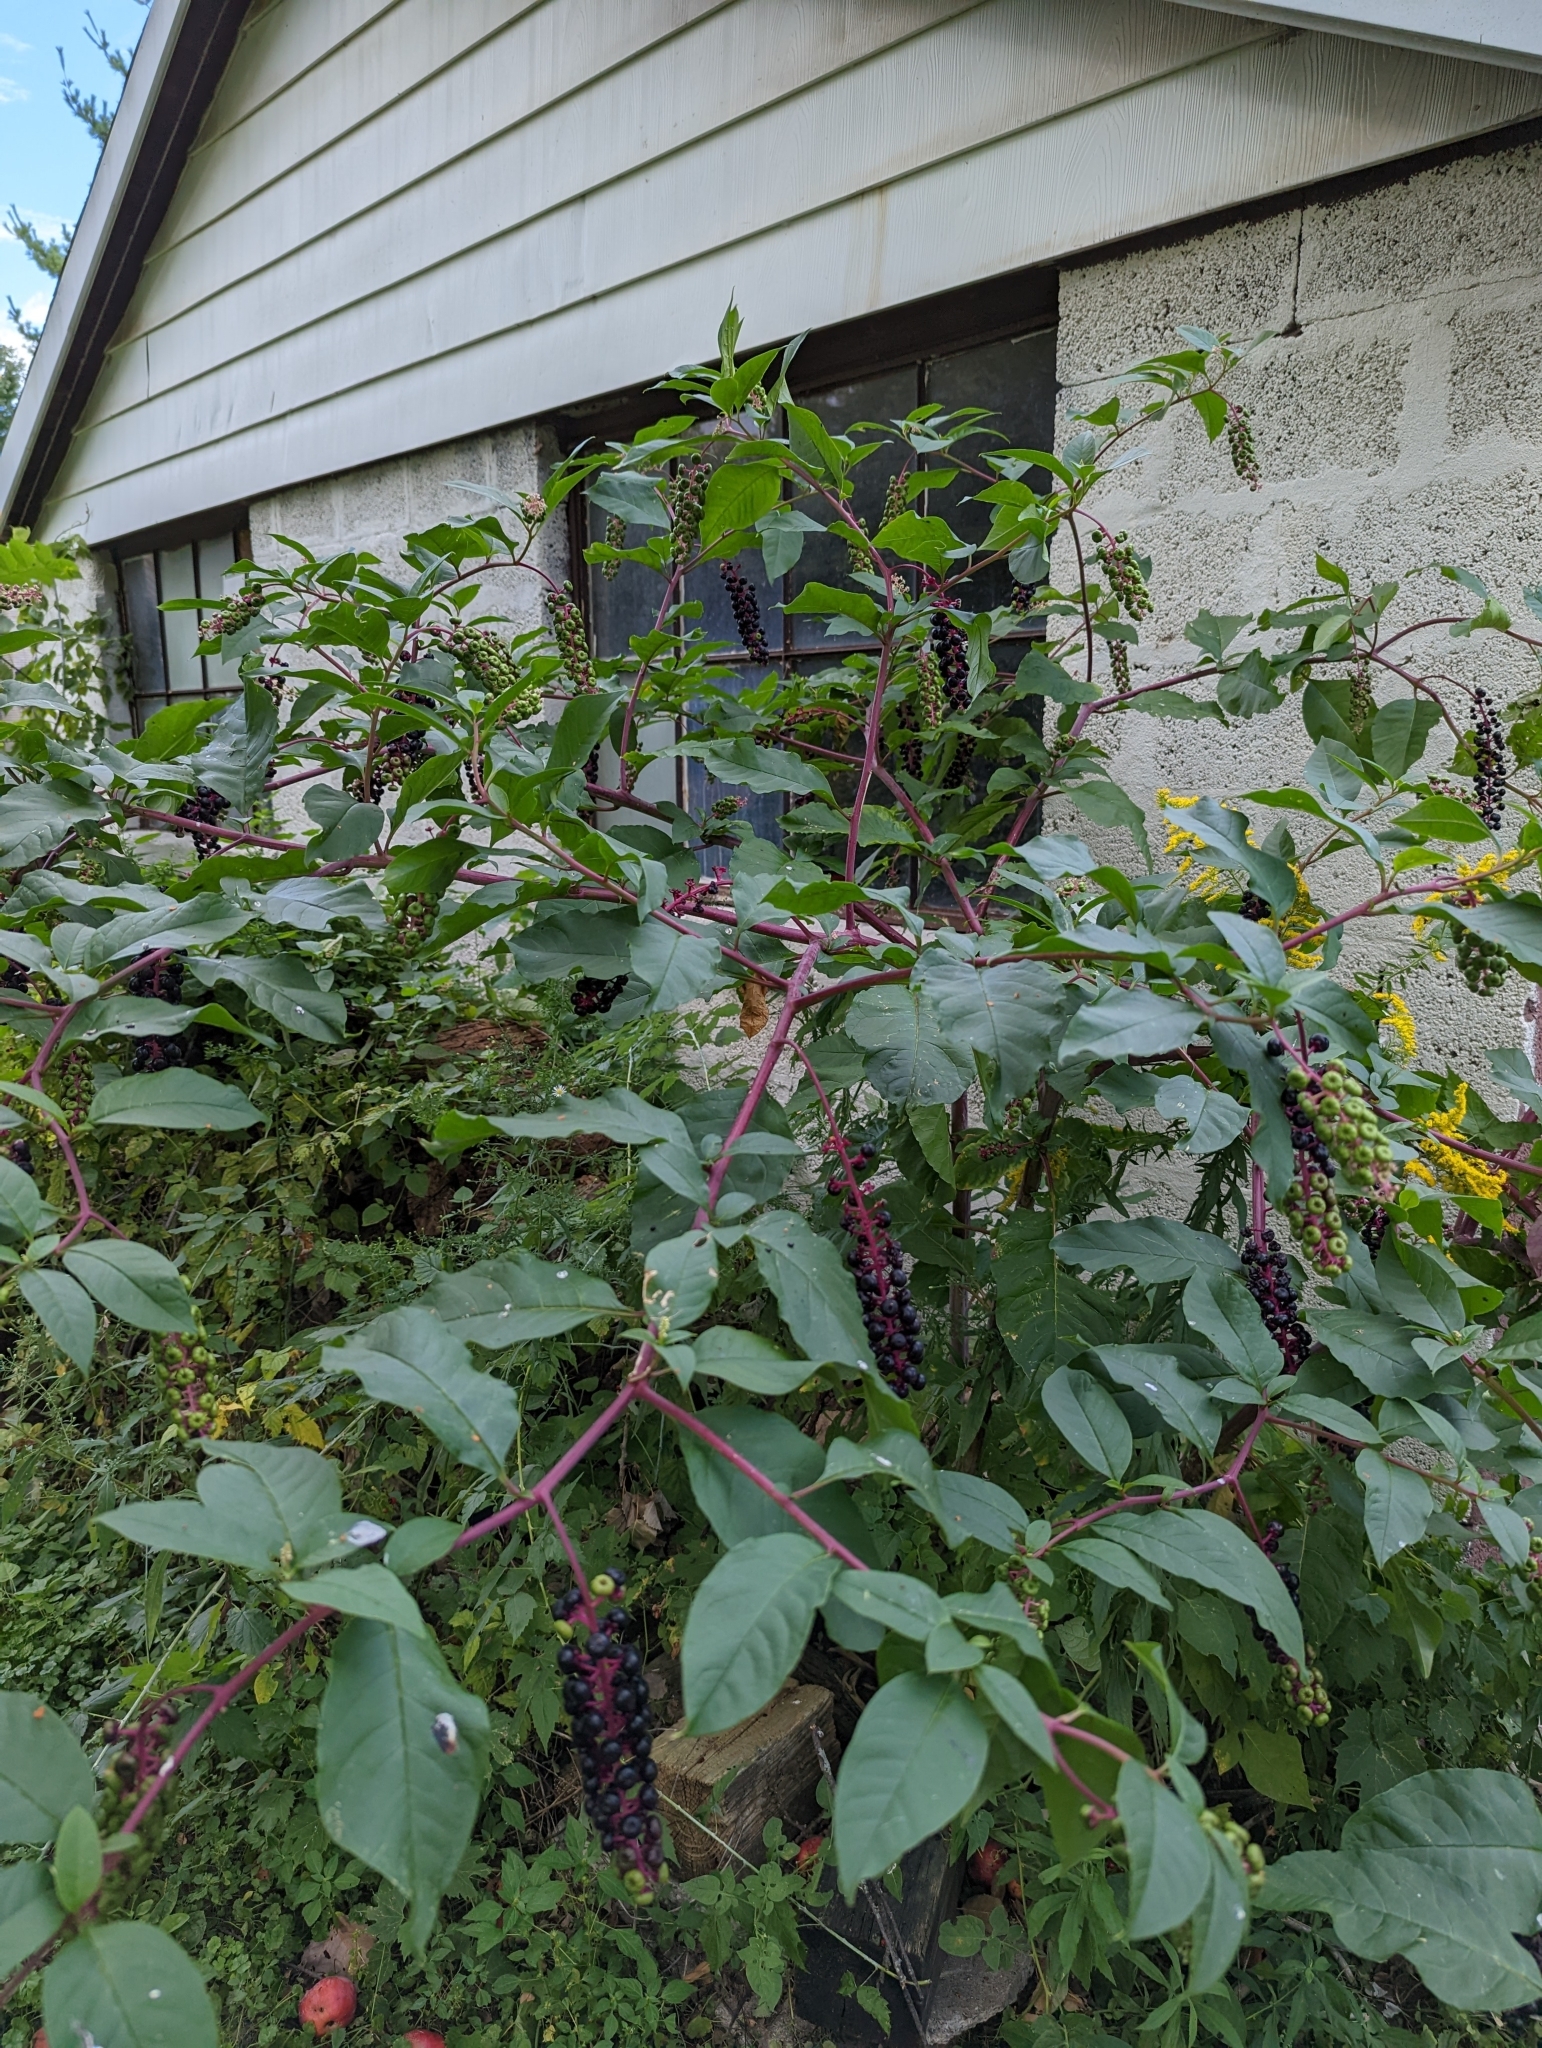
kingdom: Plantae
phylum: Tracheophyta
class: Magnoliopsida
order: Caryophyllales
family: Phytolaccaceae
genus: Phytolacca
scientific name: Phytolacca americana
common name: American pokeweed
